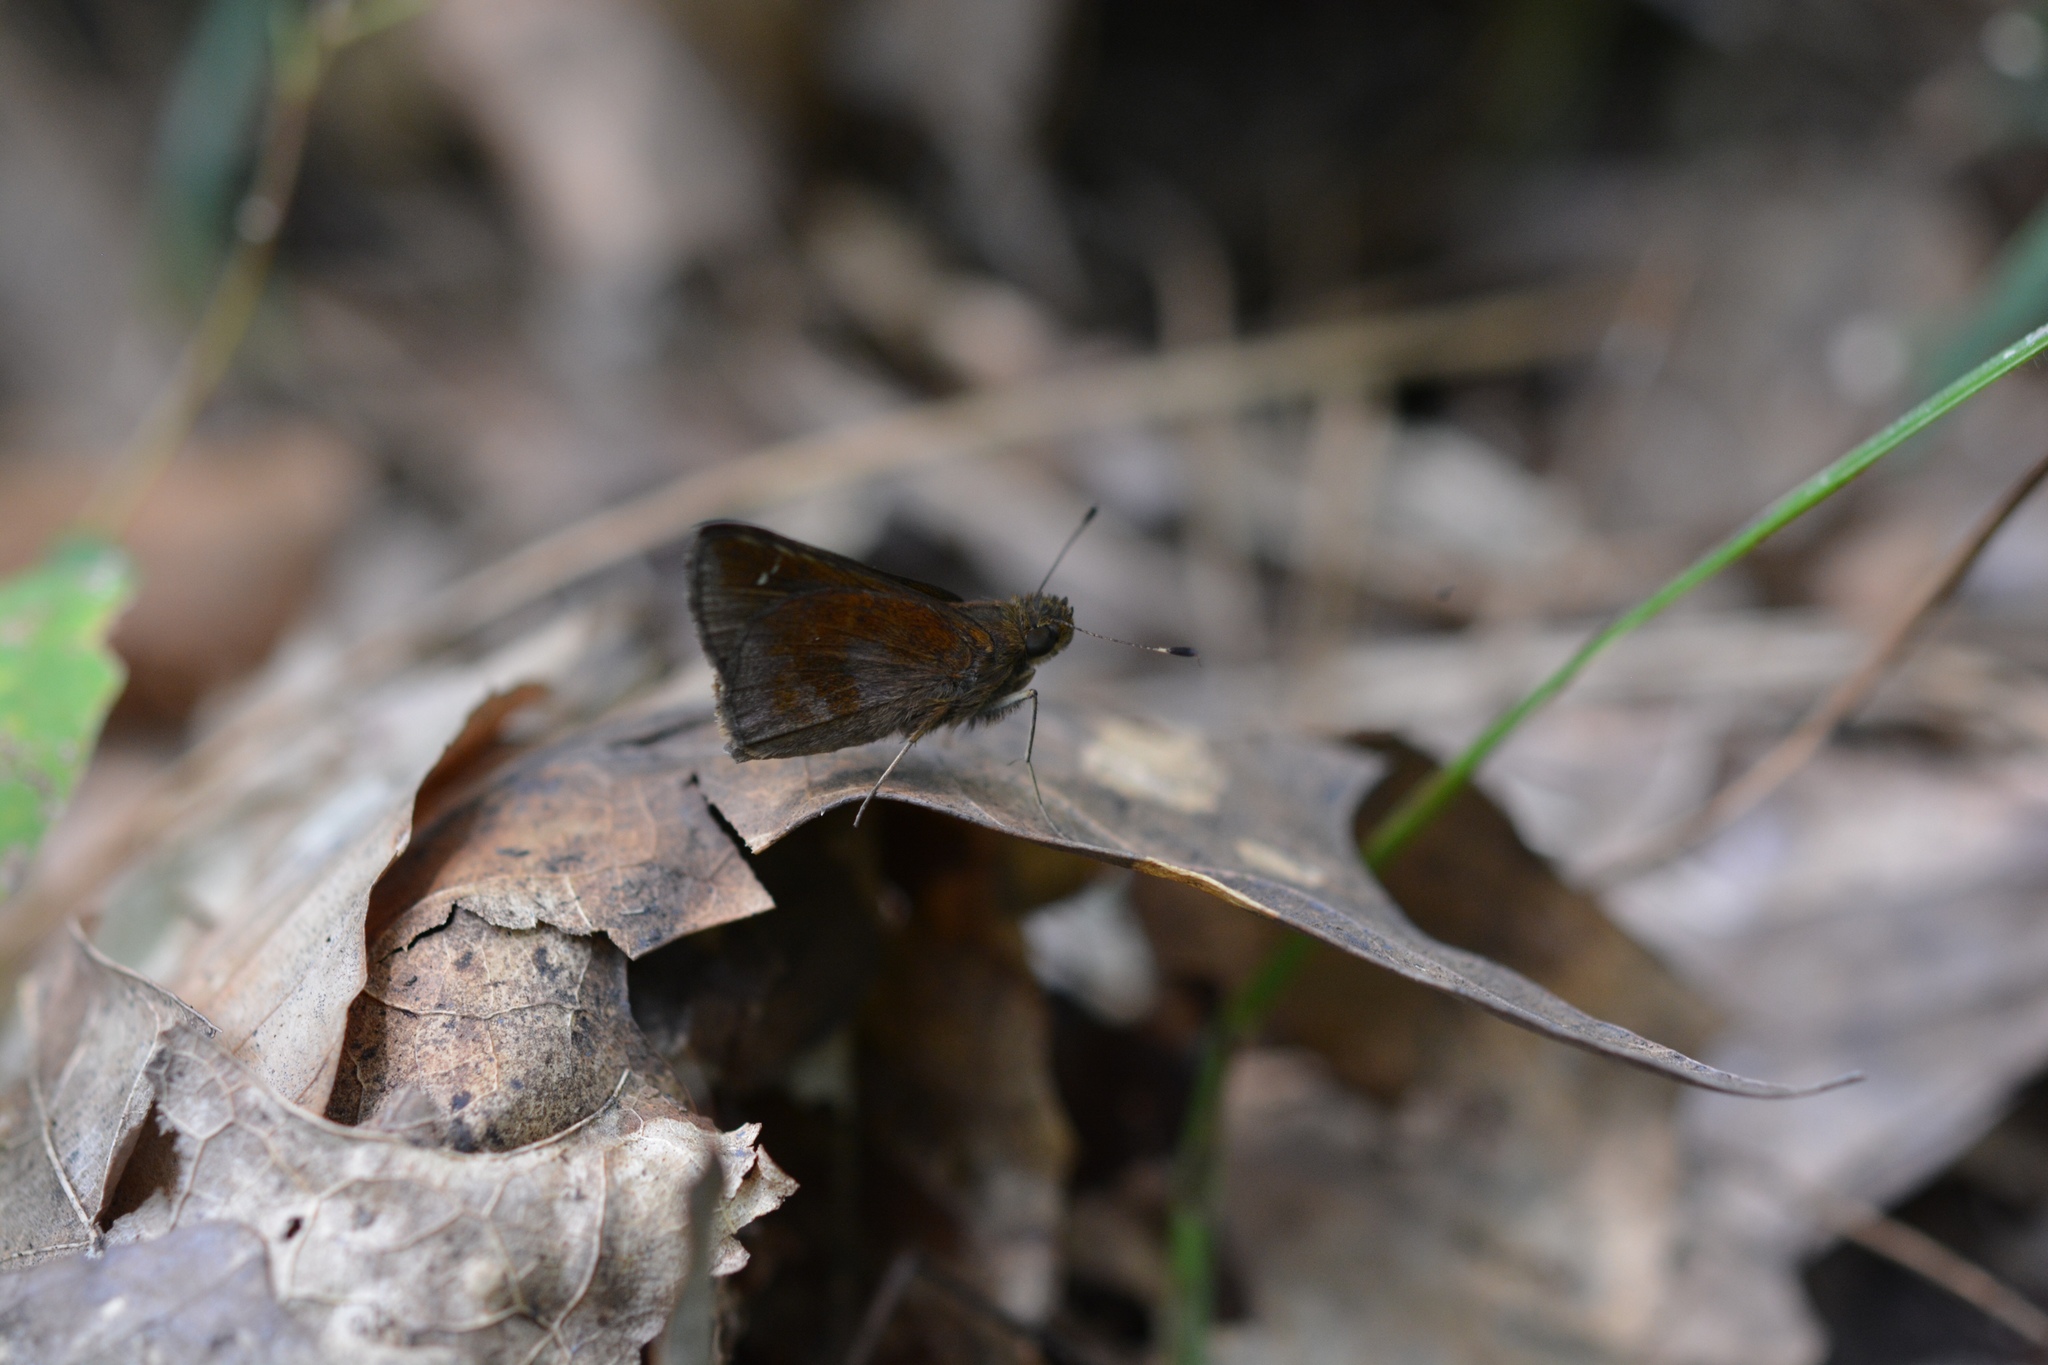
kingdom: Animalia
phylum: Arthropoda
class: Insecta
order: Lepidoptera
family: Hesperiidae
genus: Lerema
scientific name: Lerema accius
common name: Clouded skipper
